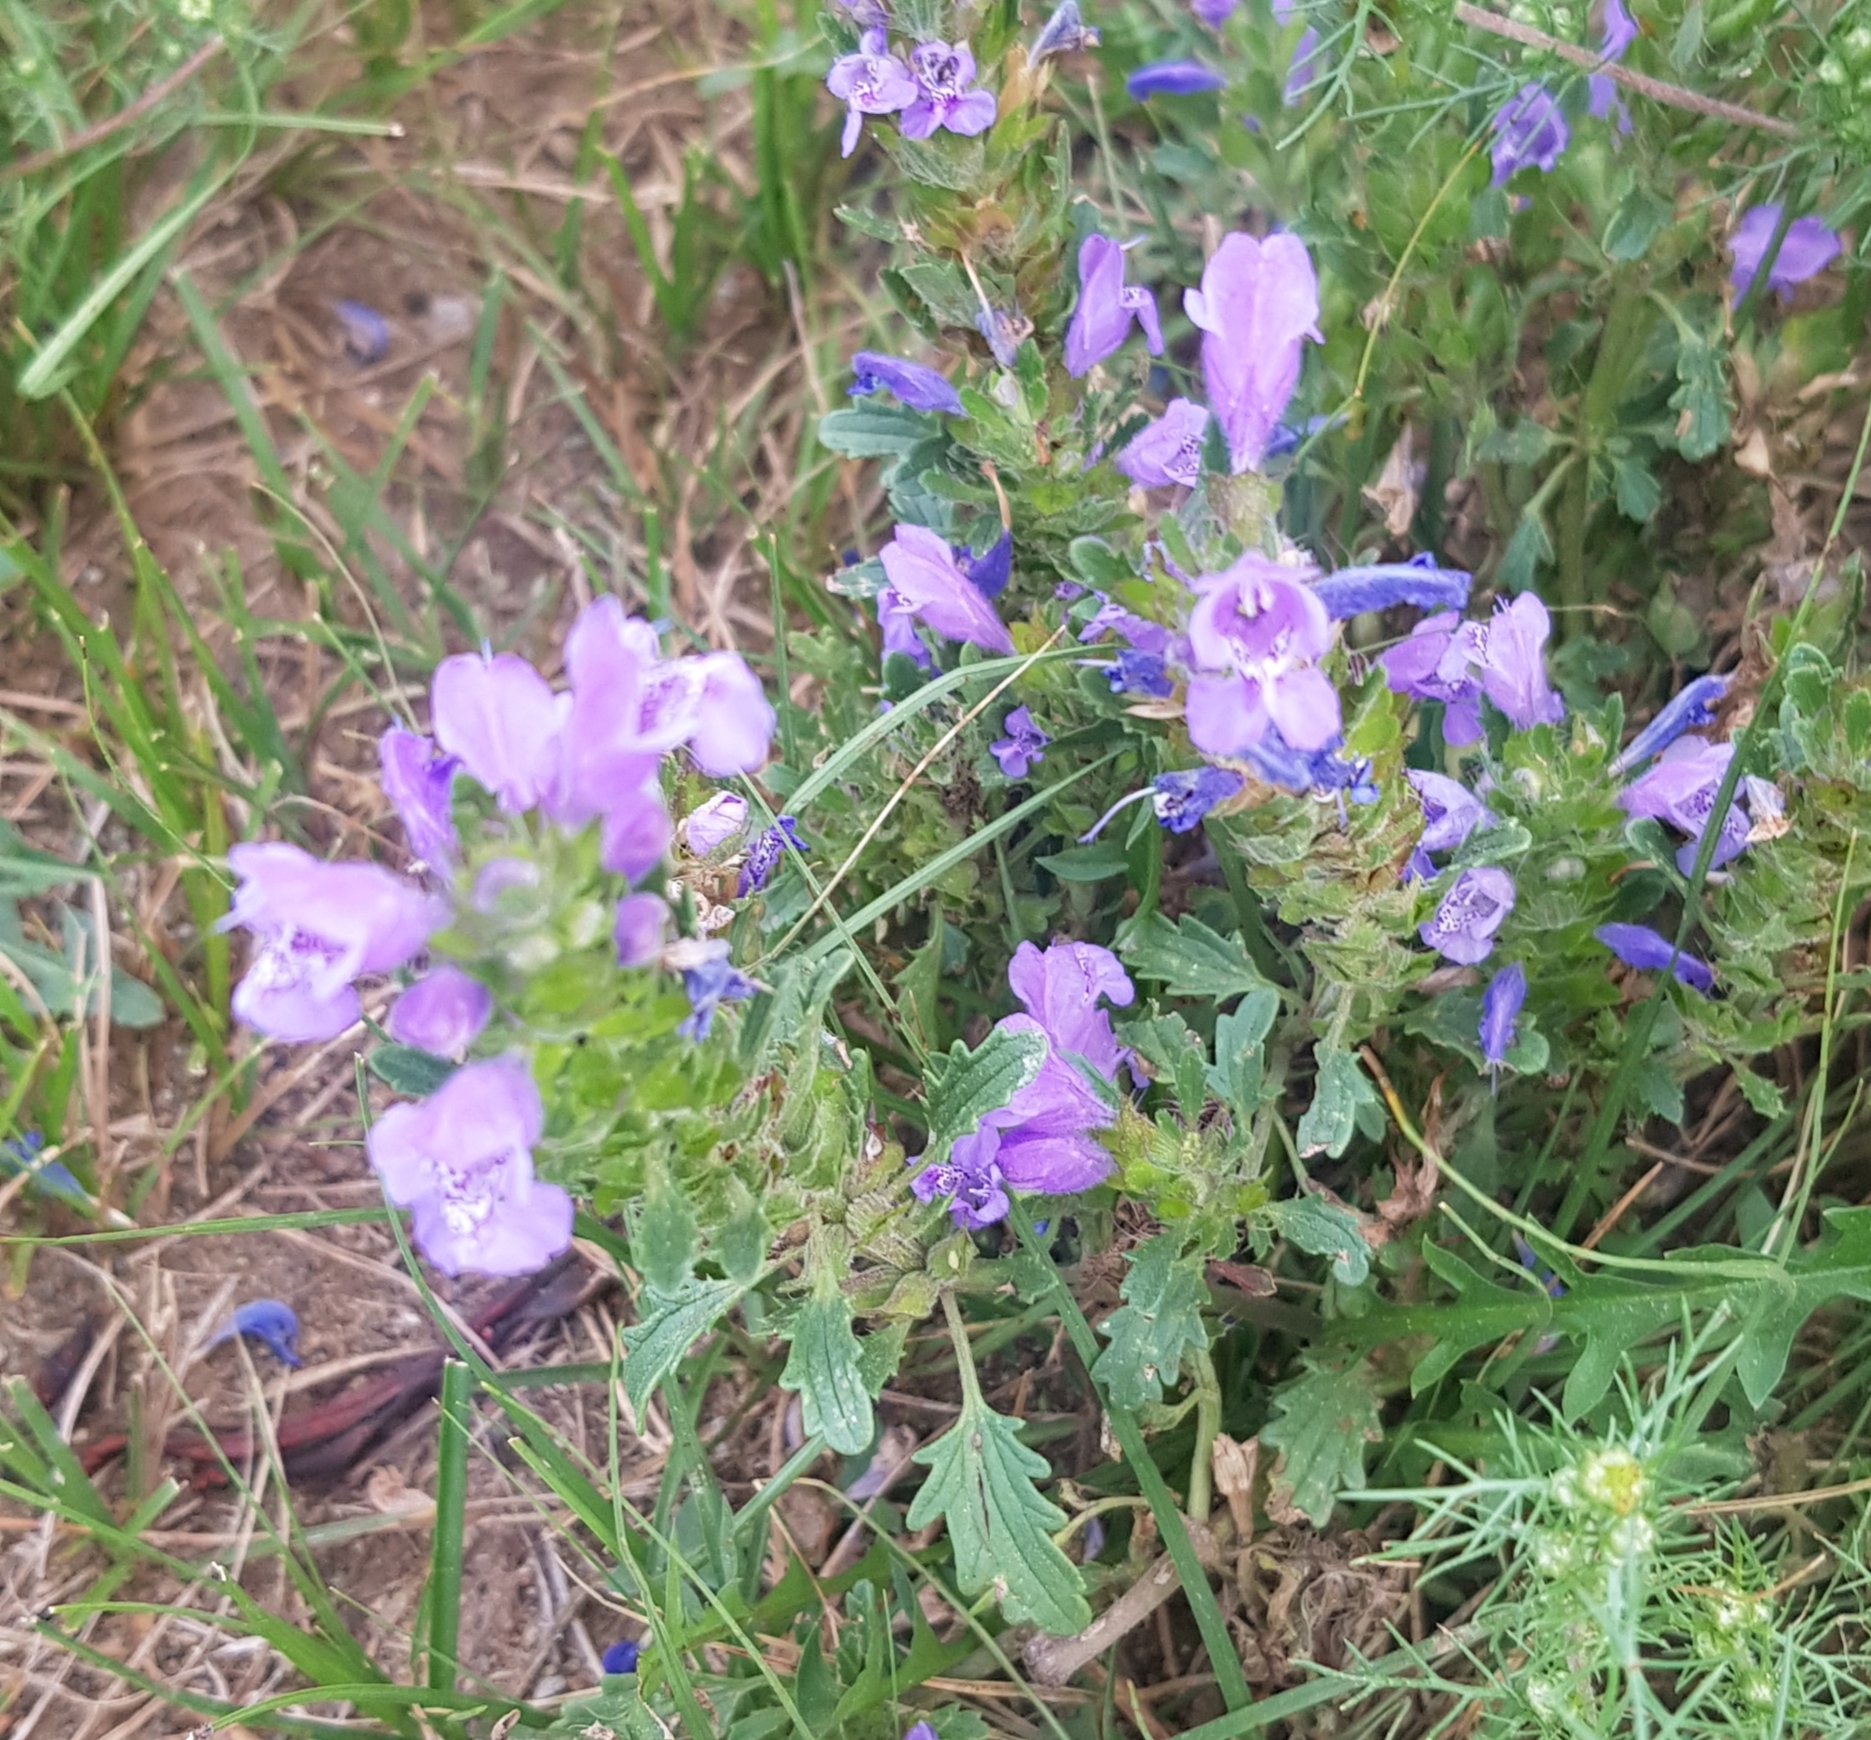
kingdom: Plantae
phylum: Tracheophyta
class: Magnoliopsida
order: Lamiales
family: Lamiaceae
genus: Dracocephalum
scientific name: Dracocephalum foetidum
